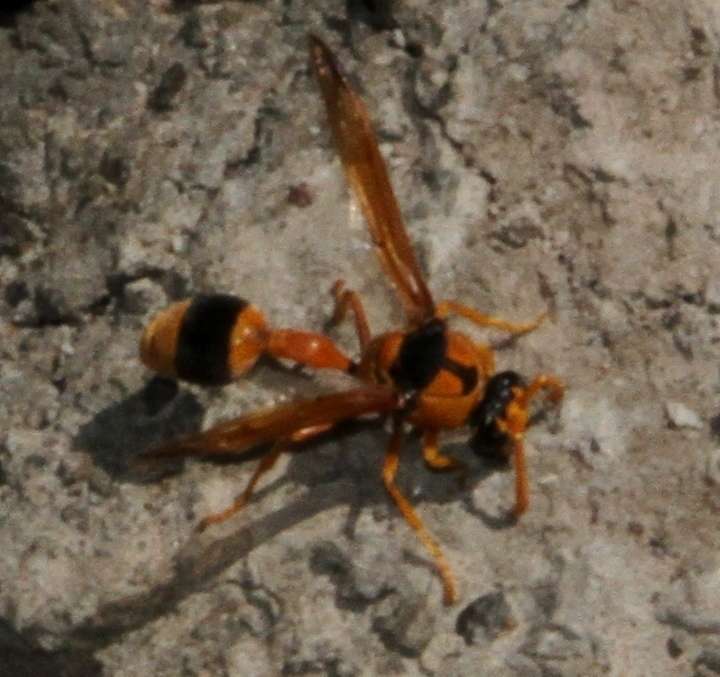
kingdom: Animalia
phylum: Arthropoda
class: Insecta
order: Hymenoptera
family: Eumenidae
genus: Delta
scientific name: Delta bicinctum
